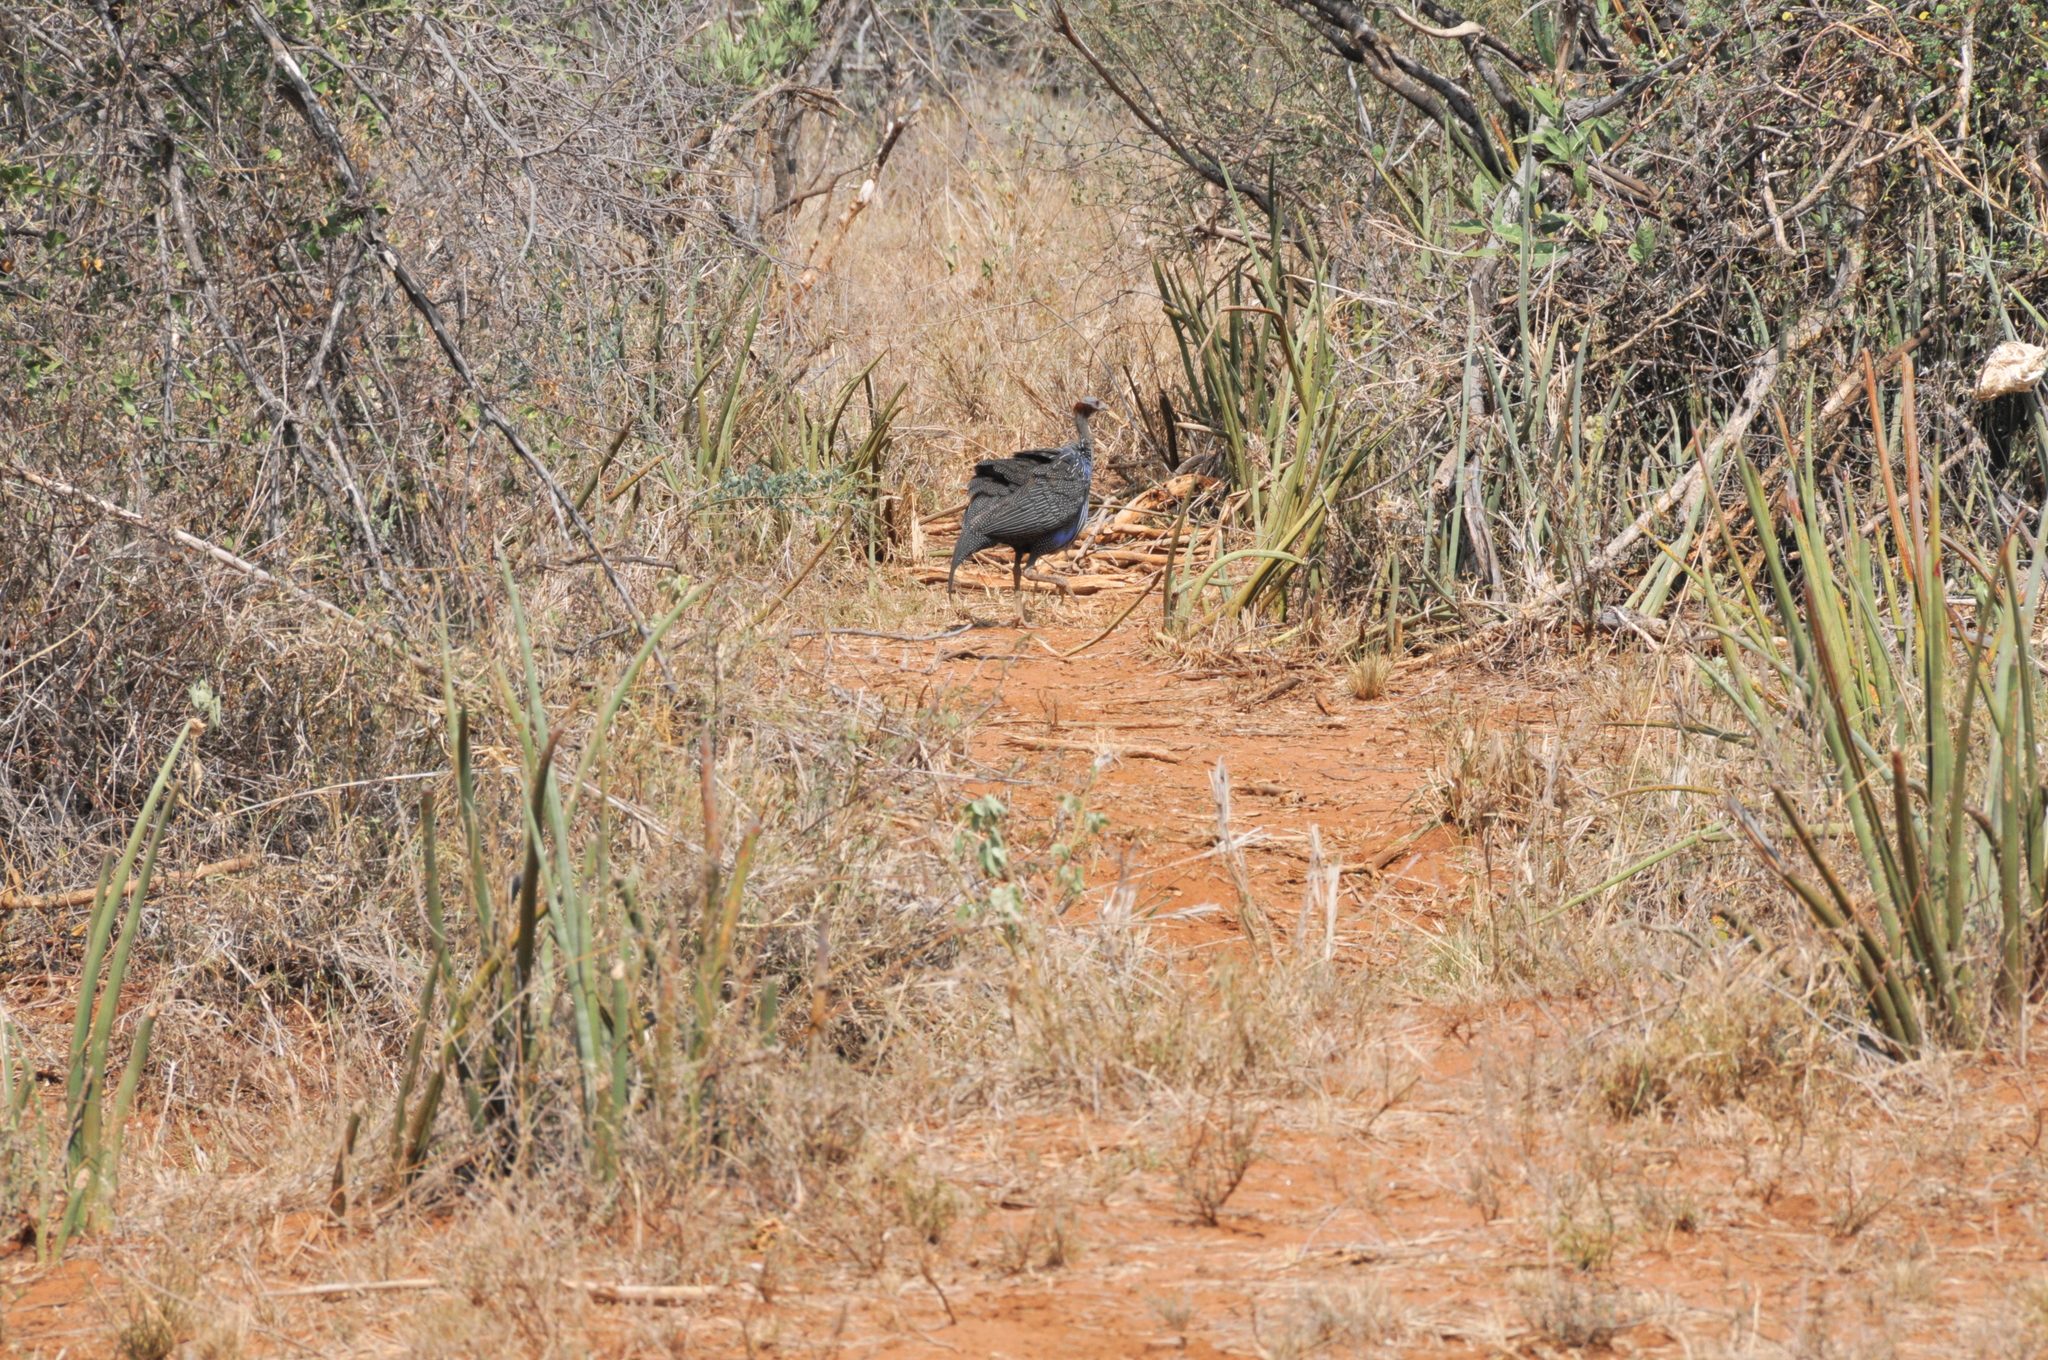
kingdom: Animalia
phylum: Chordata
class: Aves
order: Galliformes
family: Numididae
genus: Acryllium
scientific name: Acryllium vulturinum
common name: Vulturine guineafowl
